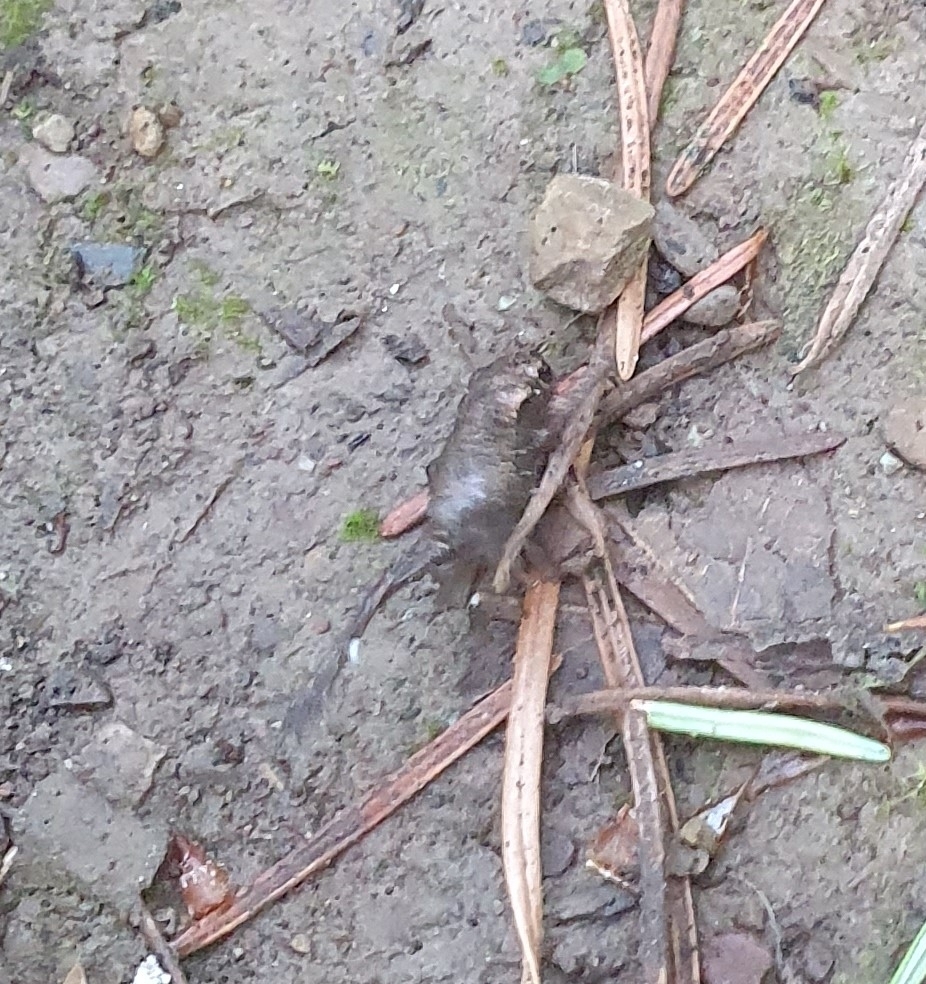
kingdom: Animalia
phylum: Chordata
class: Amphibia
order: Anura
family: Bufonidae
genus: Bufo
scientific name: Bufo bufo
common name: Common toad
